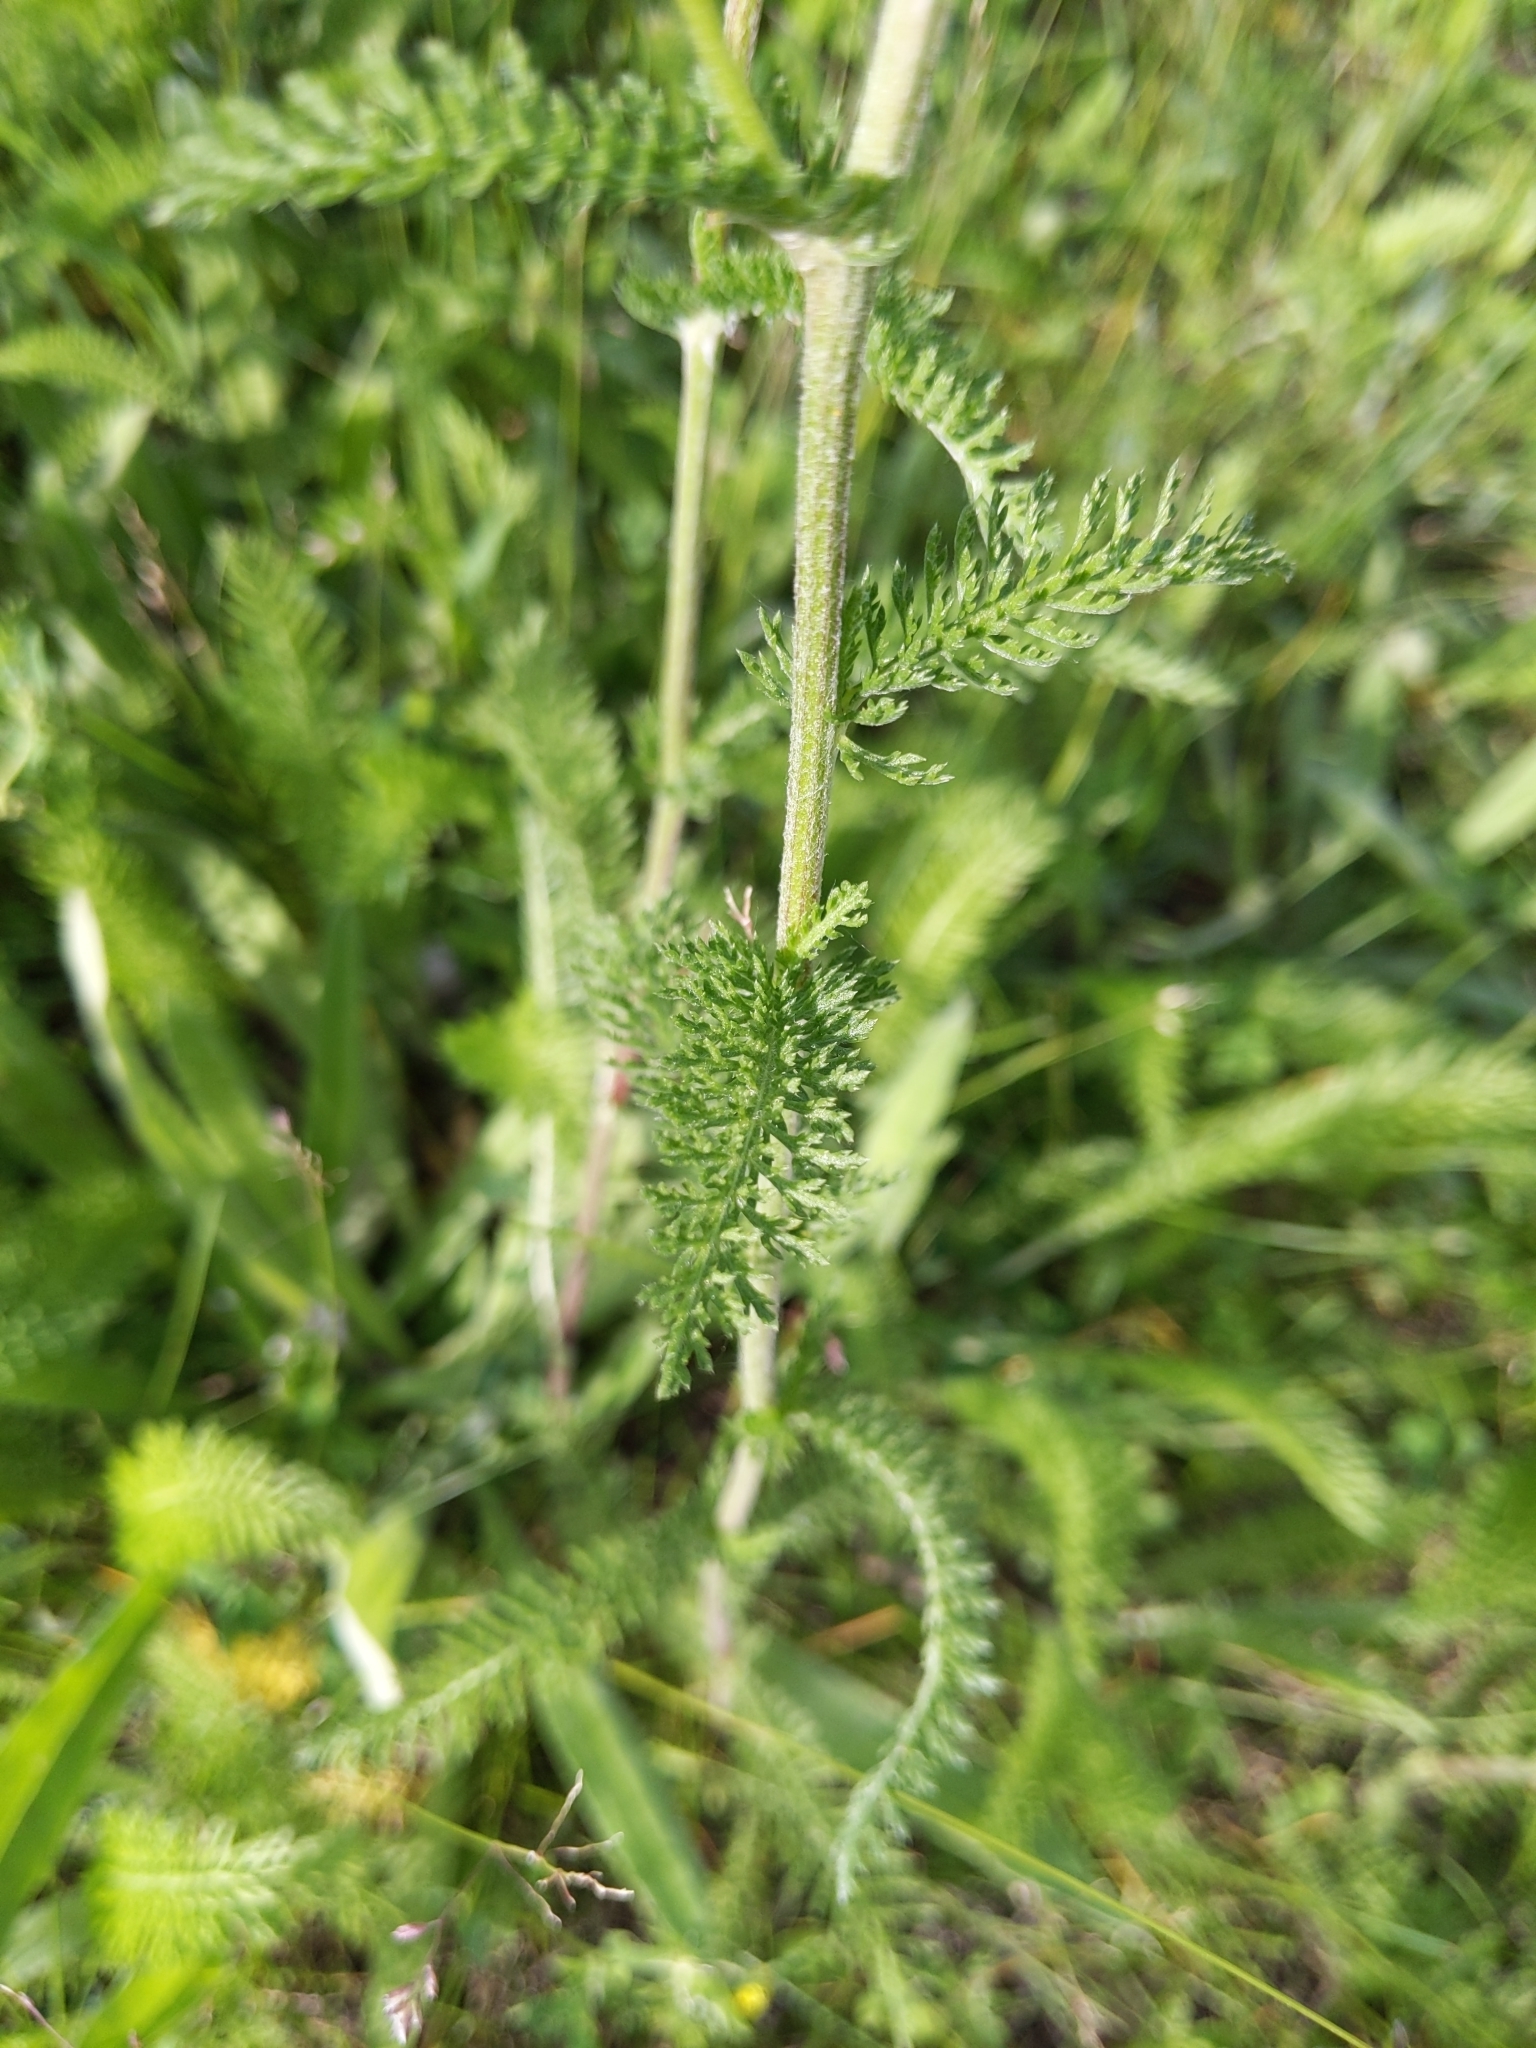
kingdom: Plantae
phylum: Tracheophyta
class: Magnoliopsida
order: Asterales
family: Asteraceae
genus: Achillea
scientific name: Achillea millefolium
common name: Yarrow
